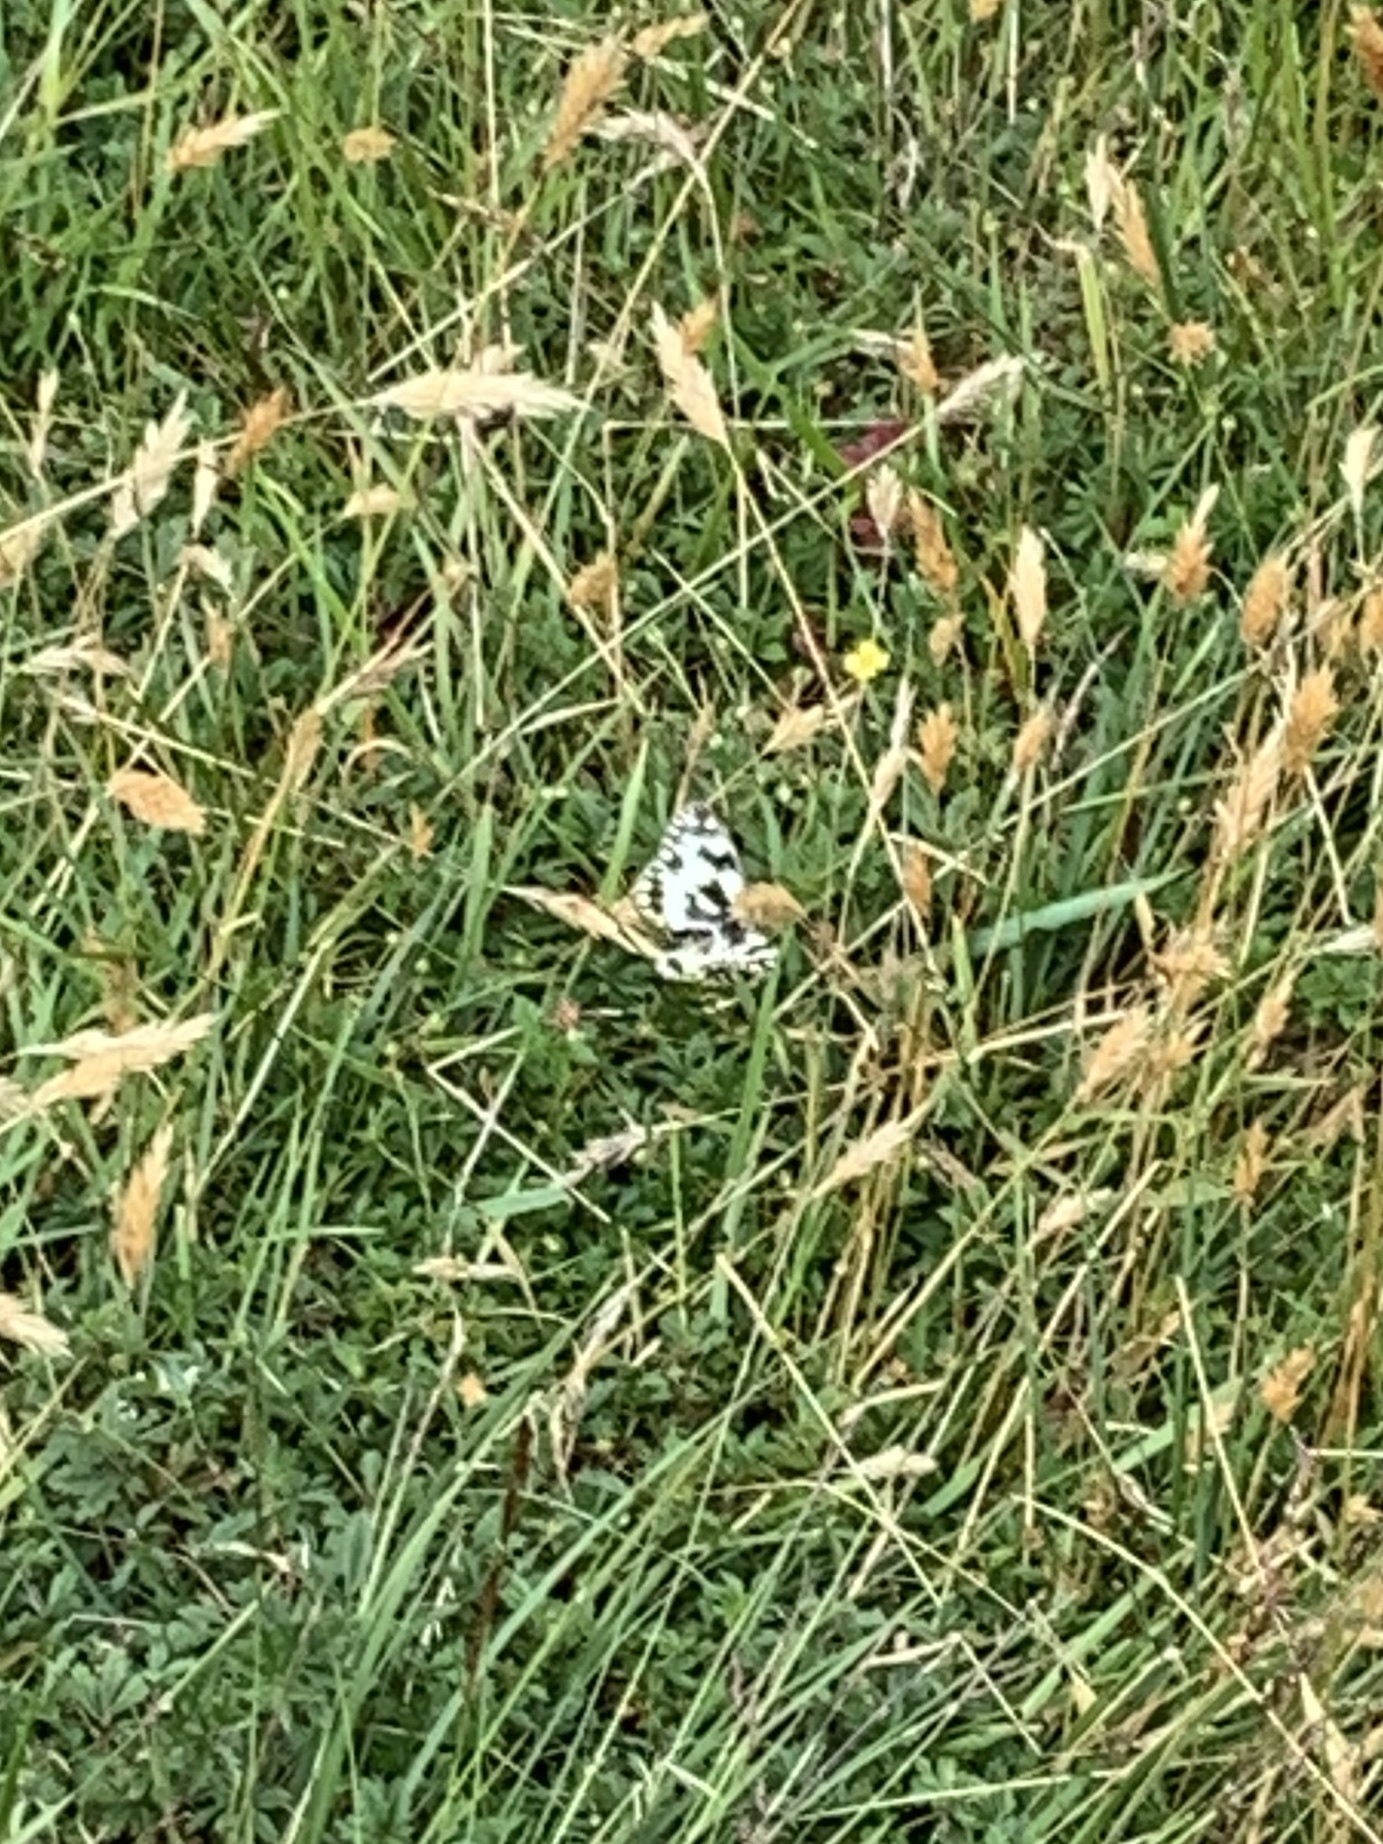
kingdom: Animalia
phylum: Arthropoda
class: Insecta
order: Lepidoptera
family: Nymphalidae
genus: Melanargia
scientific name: Melanargia galathea
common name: Marbled white
